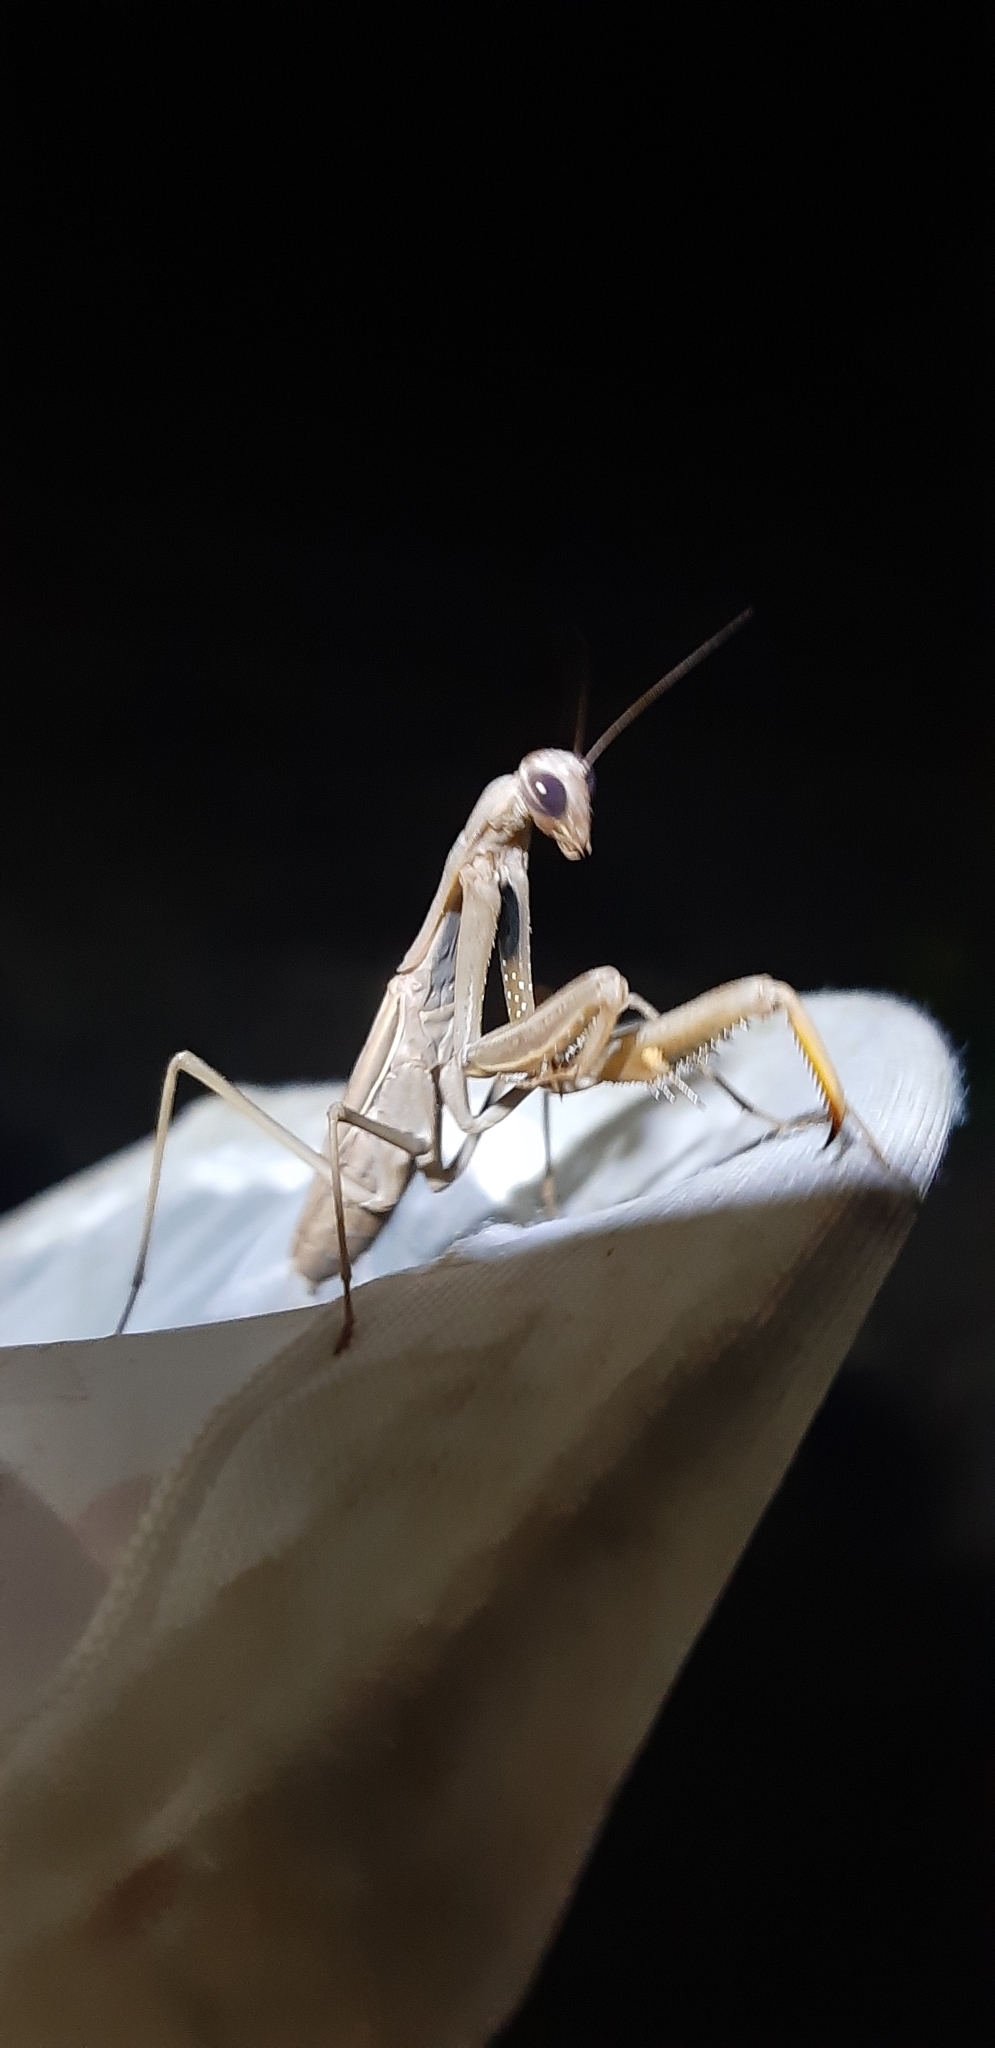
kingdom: Animalia
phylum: Arthropoda
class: Insecta
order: Mantodea
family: Mantidae
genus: Mantis
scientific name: Mantis religiosa
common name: Praying mantis
